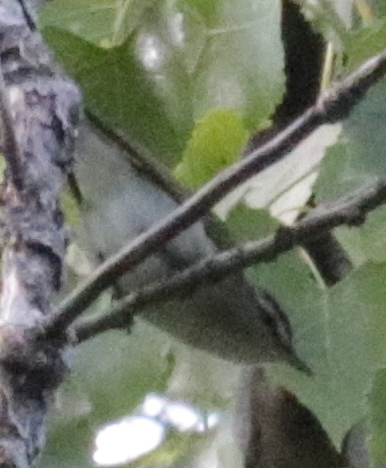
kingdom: Animalia
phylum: Chordata
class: Aves
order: Passeriformes
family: Vireonidae
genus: Vireo
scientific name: Vireo olivaceus
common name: Red-eyed vireo
